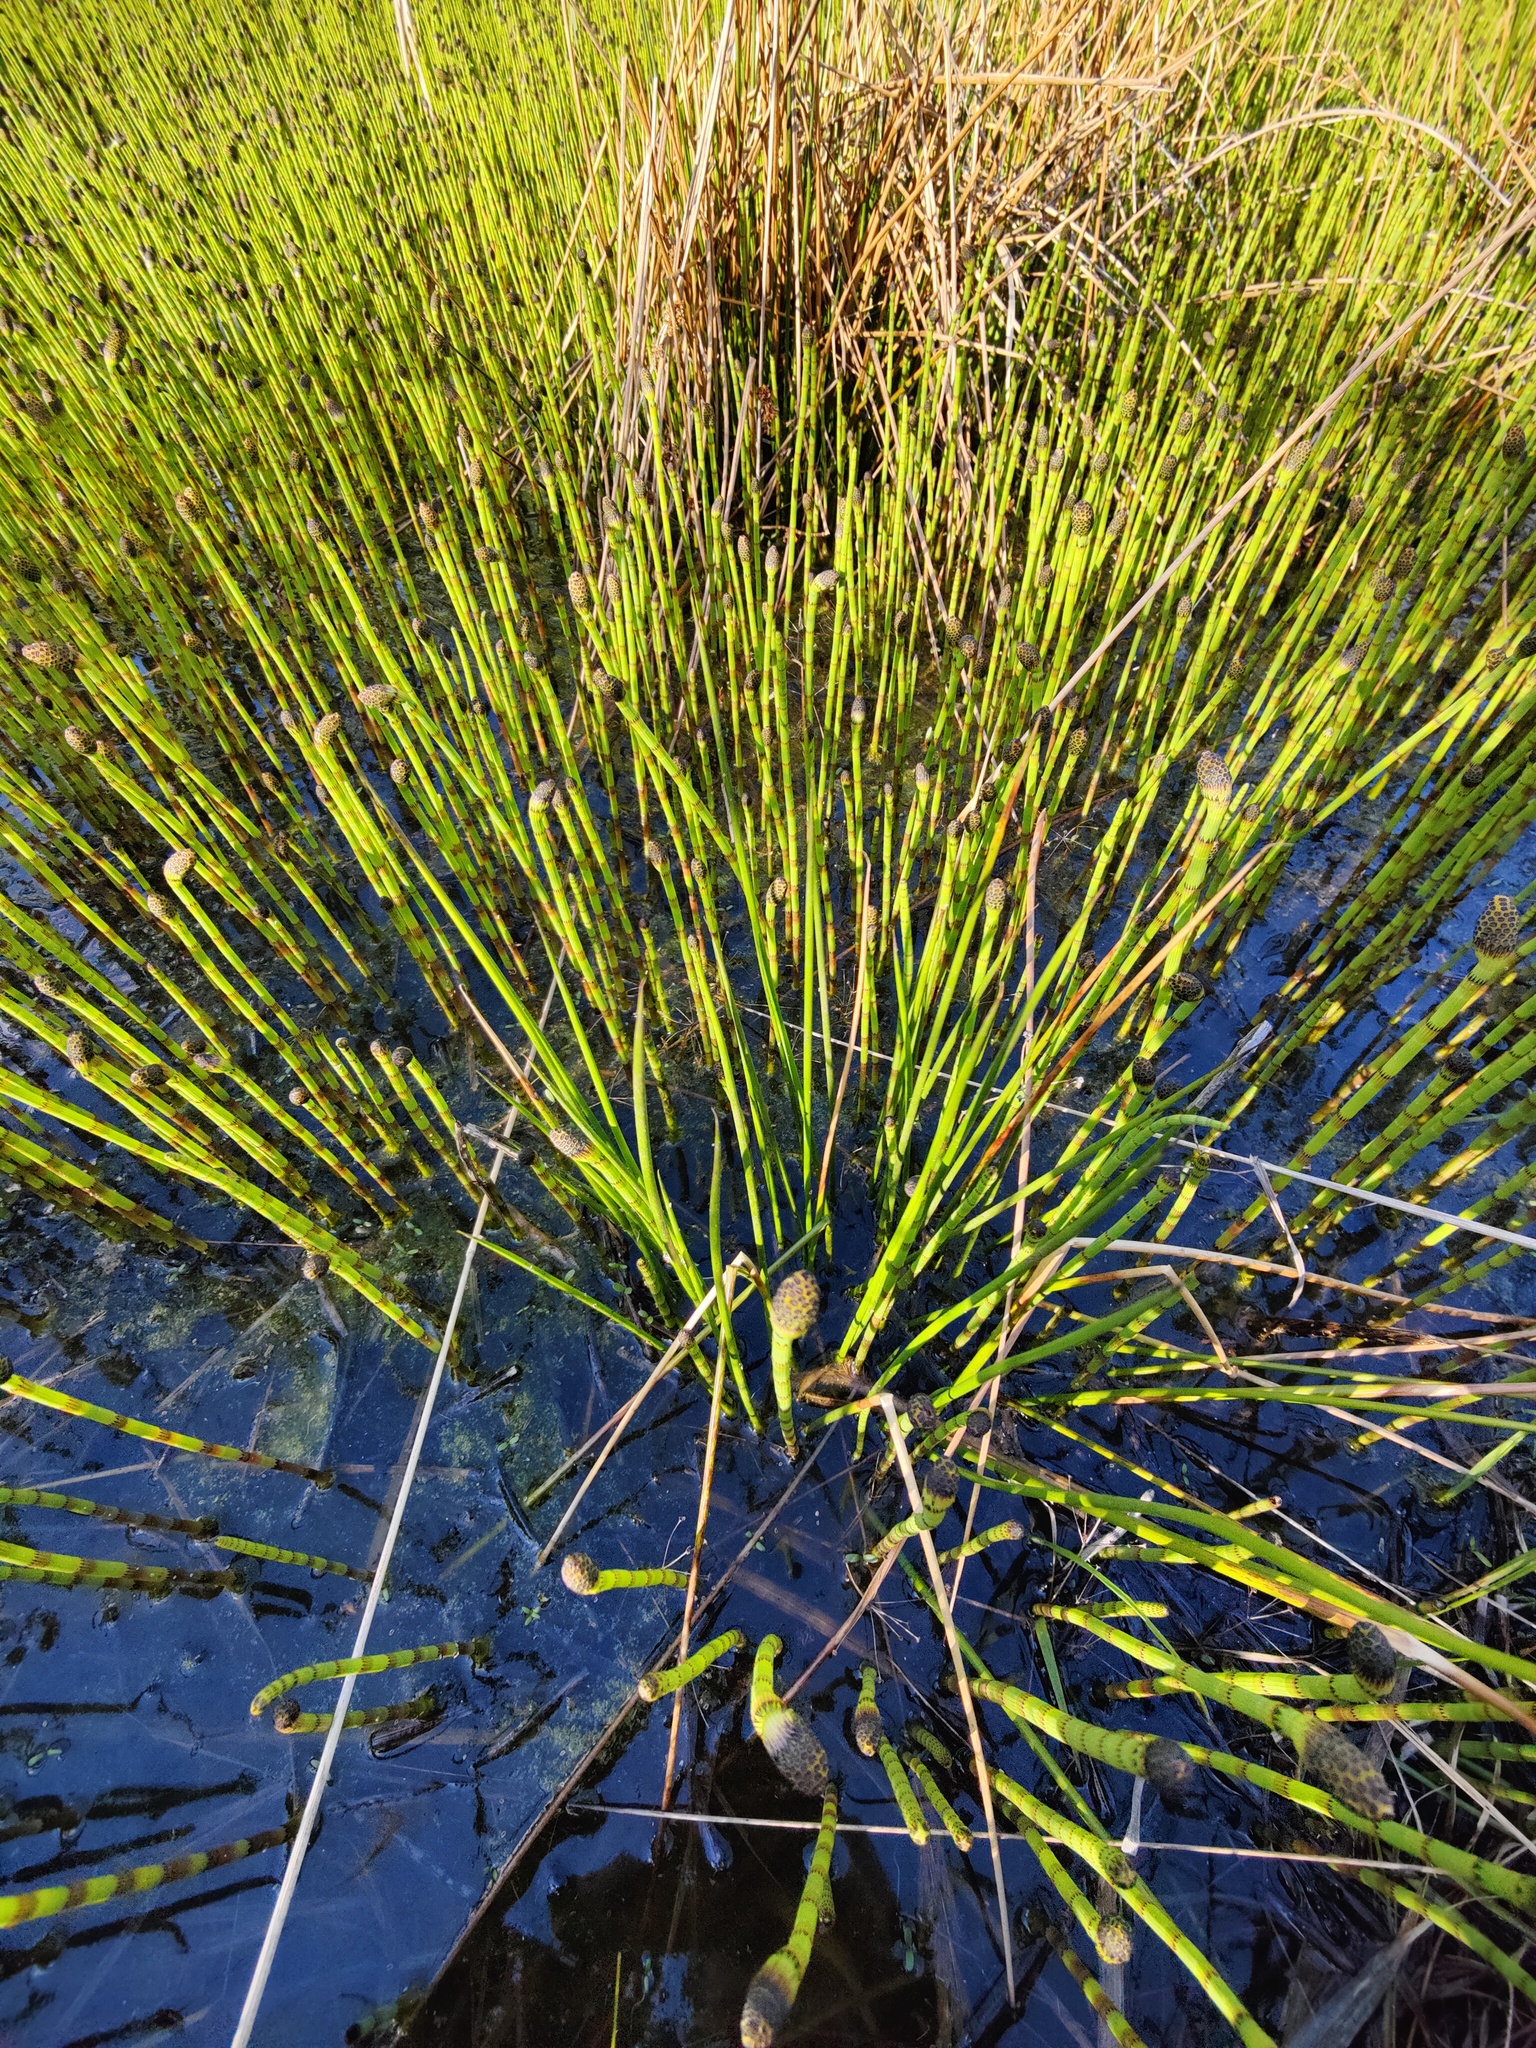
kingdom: Plantae
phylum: Tracheophyta
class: Polypodiopsida
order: Equisetales
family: Equisetaceae
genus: Equisetum
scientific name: Equisetum fluviatile
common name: Water horsetail
